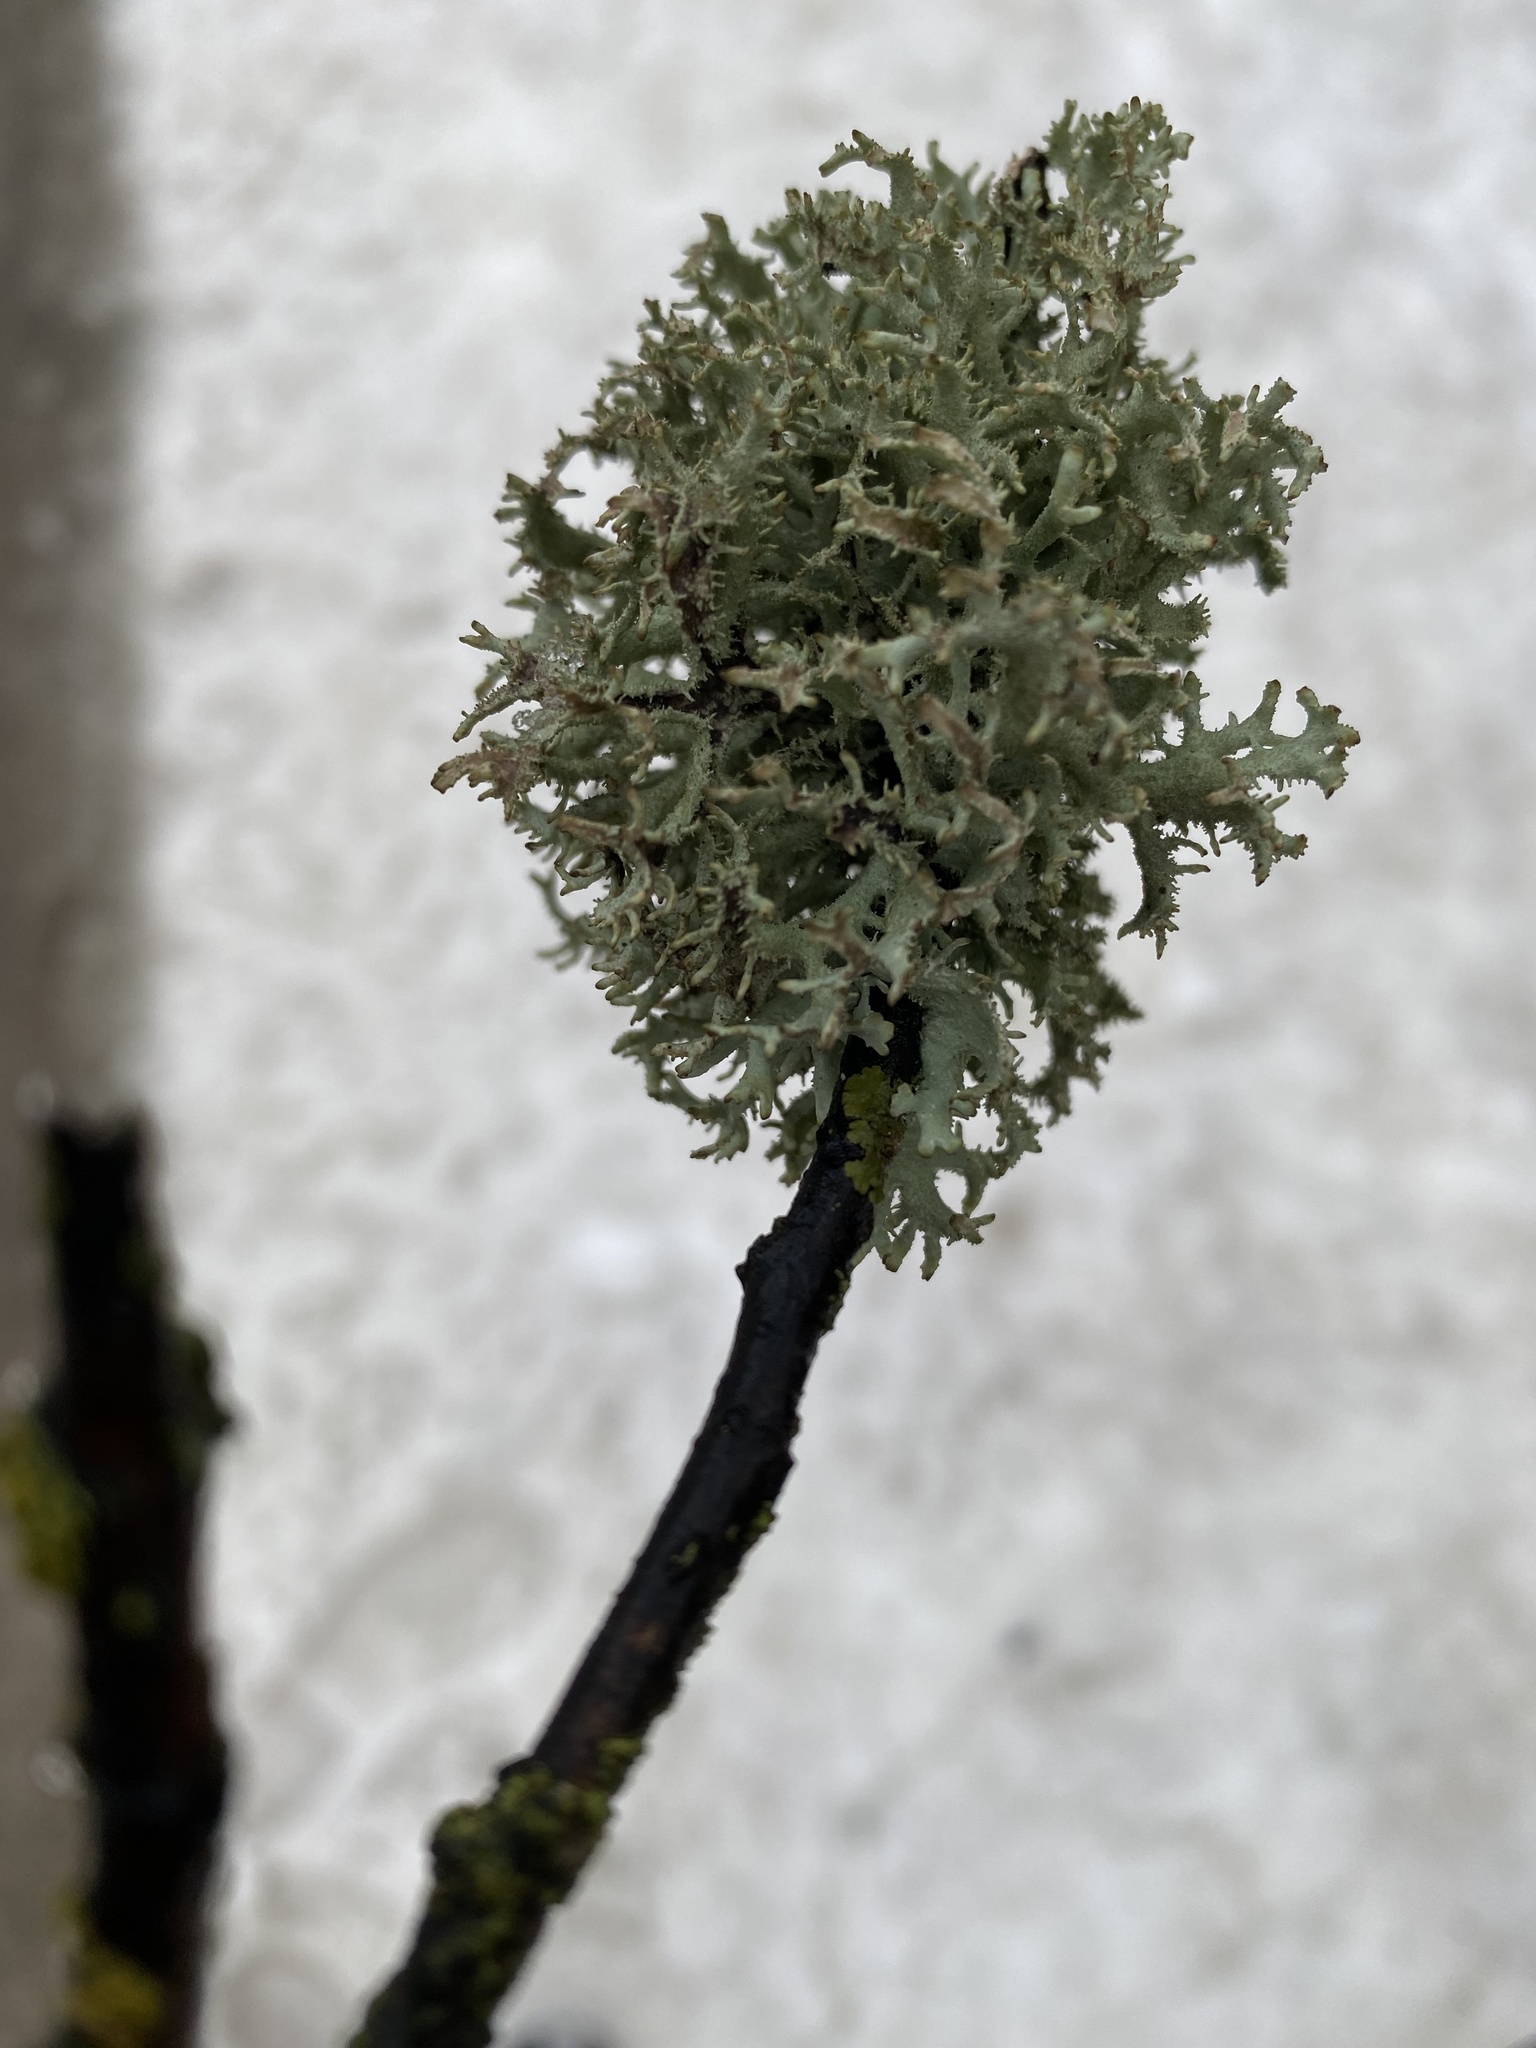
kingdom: Fungi
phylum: Ascomycota
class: Lecanoromycetes
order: Lecanorales
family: Parmeliaceae
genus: Pseudevernia
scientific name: Pseudevernia furfuracea
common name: Tree moss
